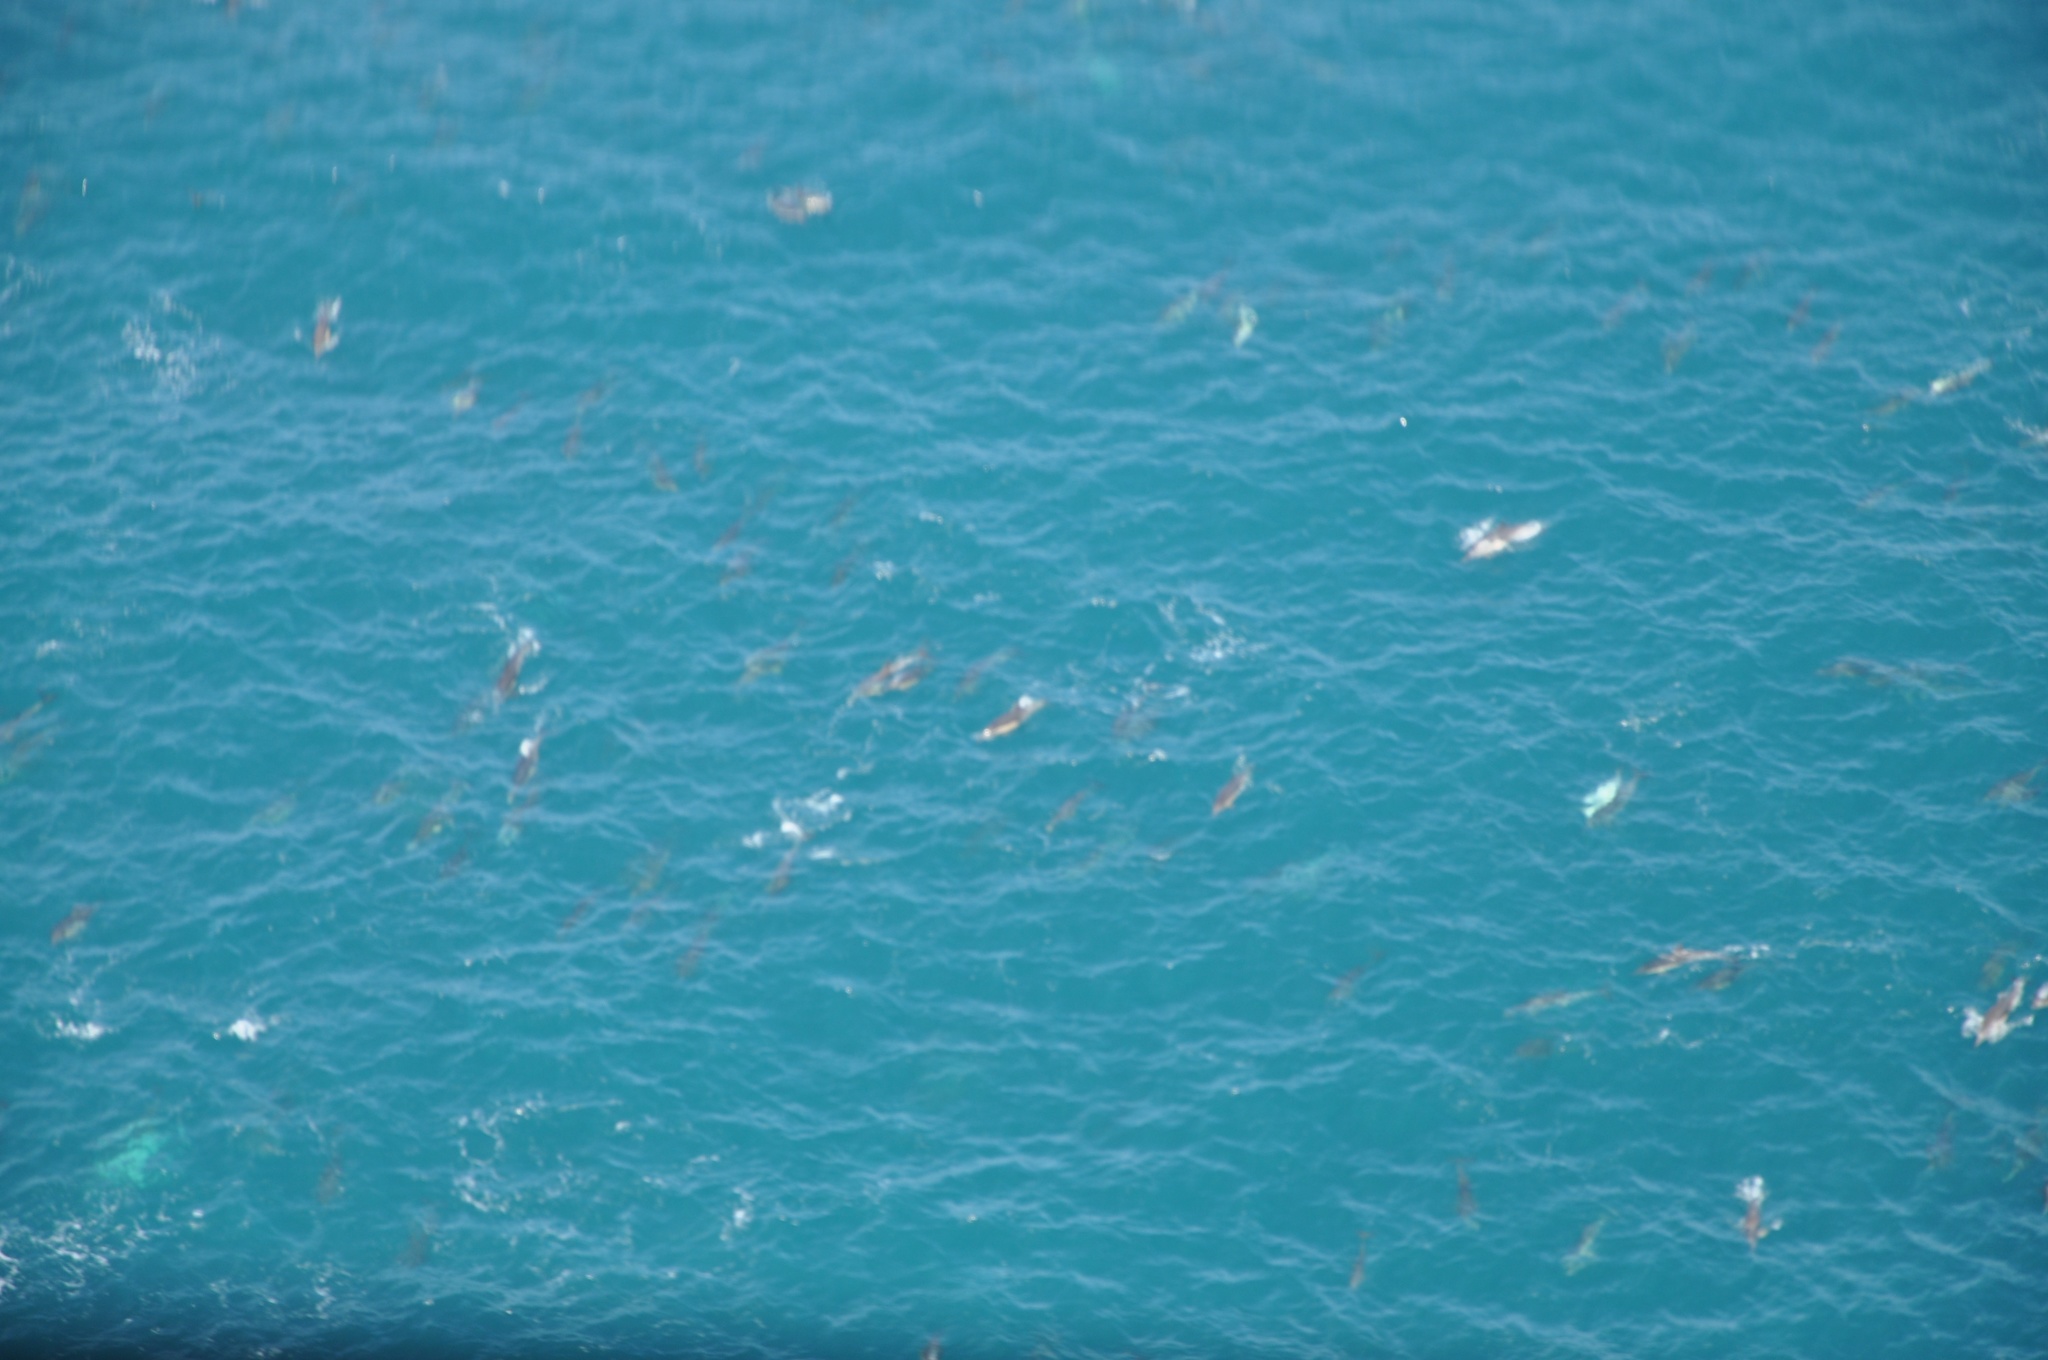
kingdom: Animalia
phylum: Chordata
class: Mammalia
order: Cetacea
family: Delphinidae
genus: Delphinus
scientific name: Delphinus delphis
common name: Common dolphin
